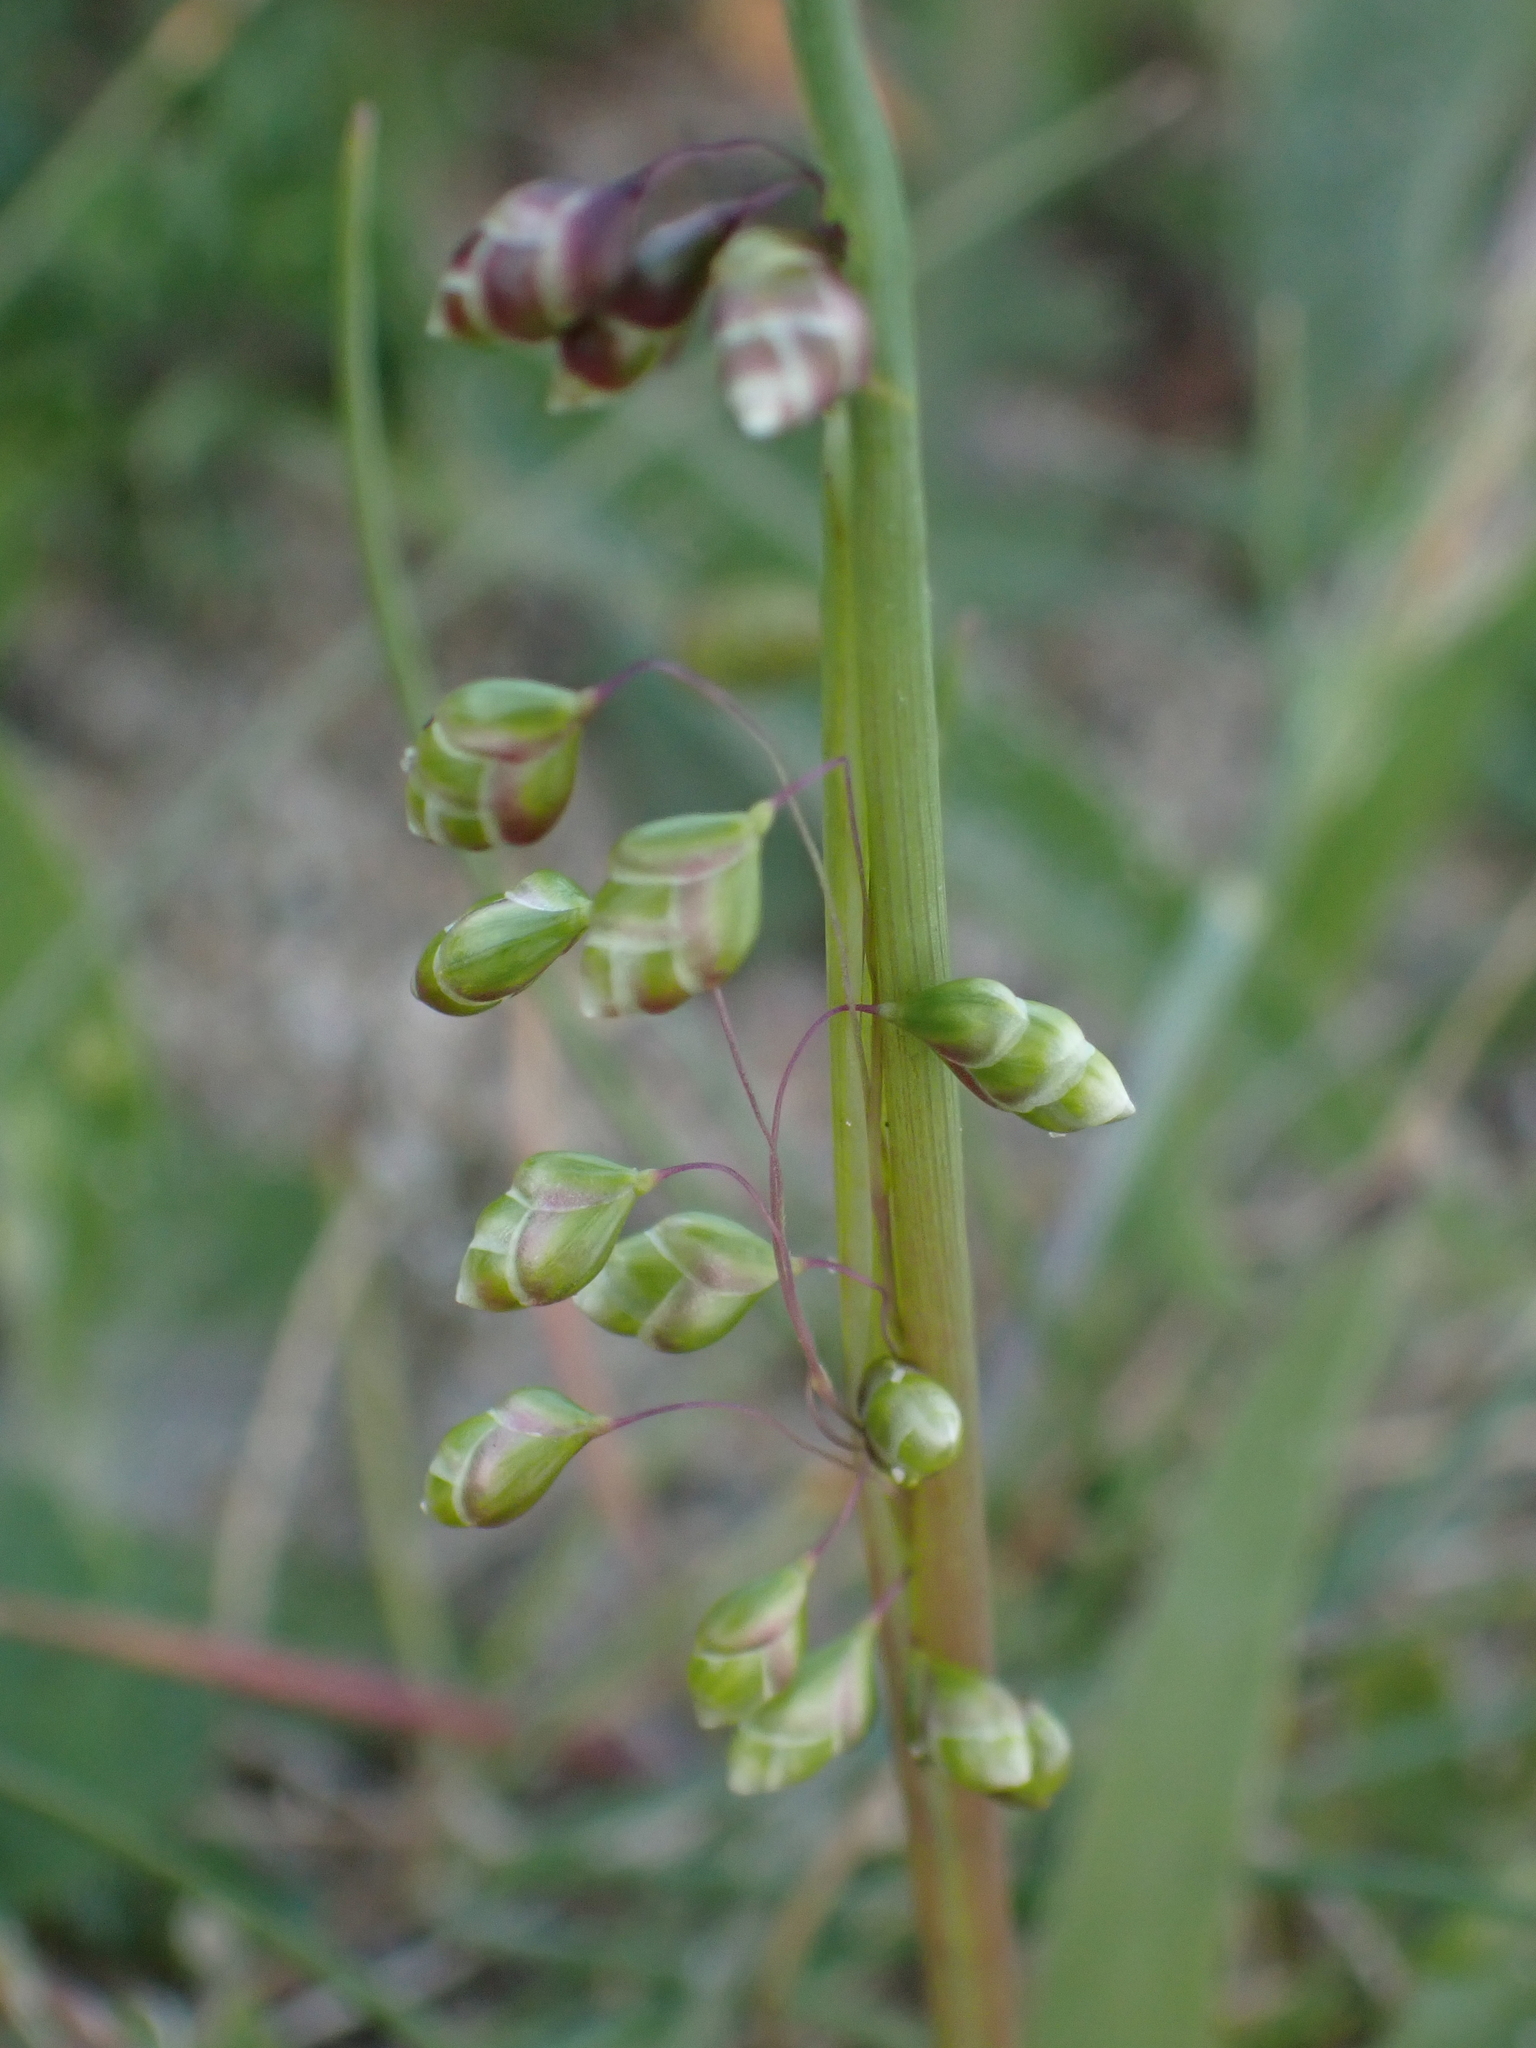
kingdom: Plantae
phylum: Tracheophyta
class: Liliopsida
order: Poales
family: Poaceae
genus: Briza
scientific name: Briza media
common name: Quaking grass
